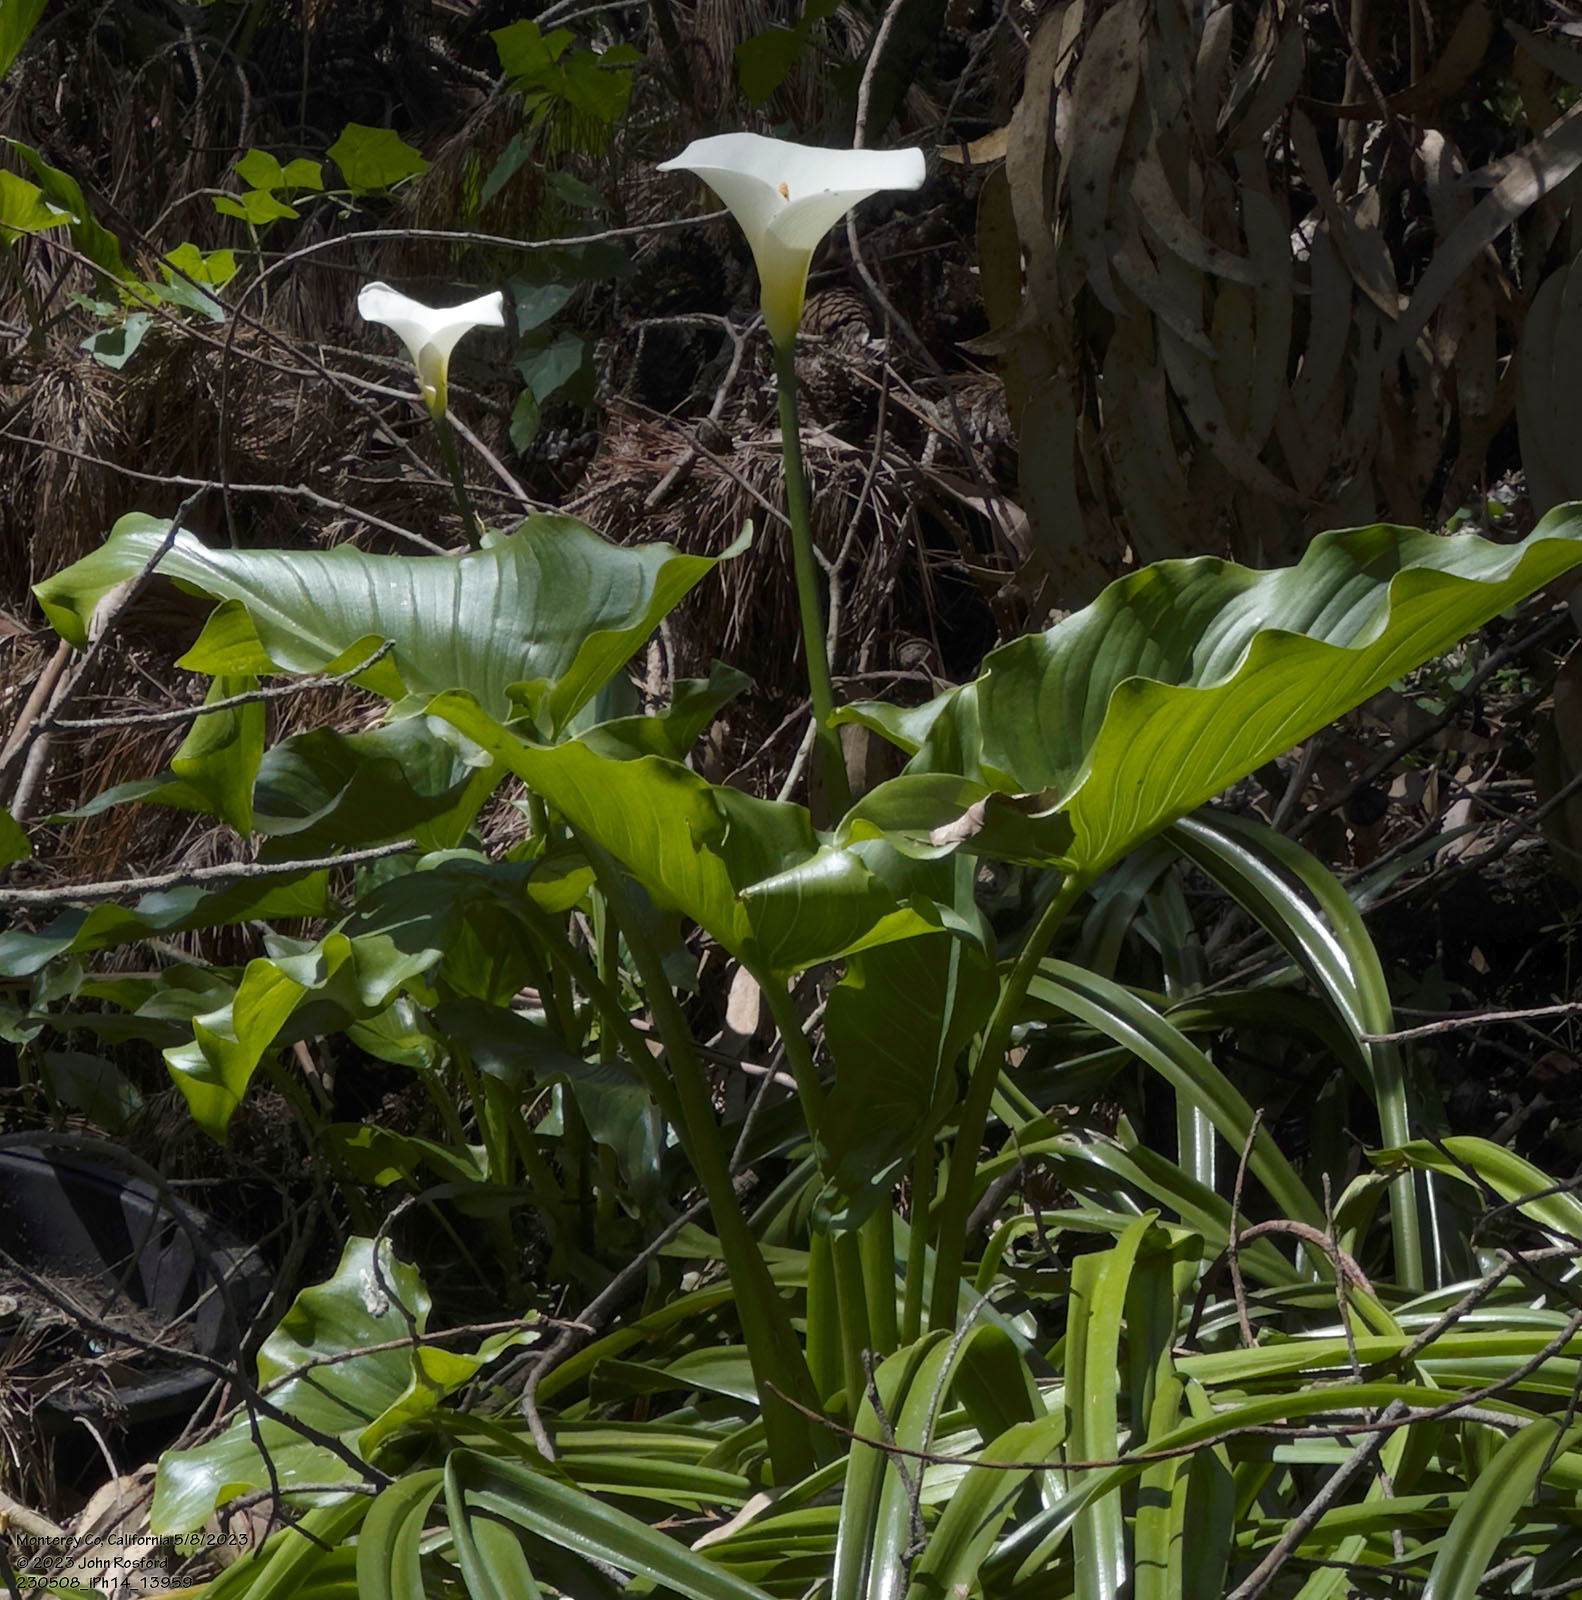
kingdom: Plantae
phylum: Tracheophyta
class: Liliopsida
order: Alismatales
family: Araceae
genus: Zantedeschia
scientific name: Zantedeschia aethiopica
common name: Altar-lily
